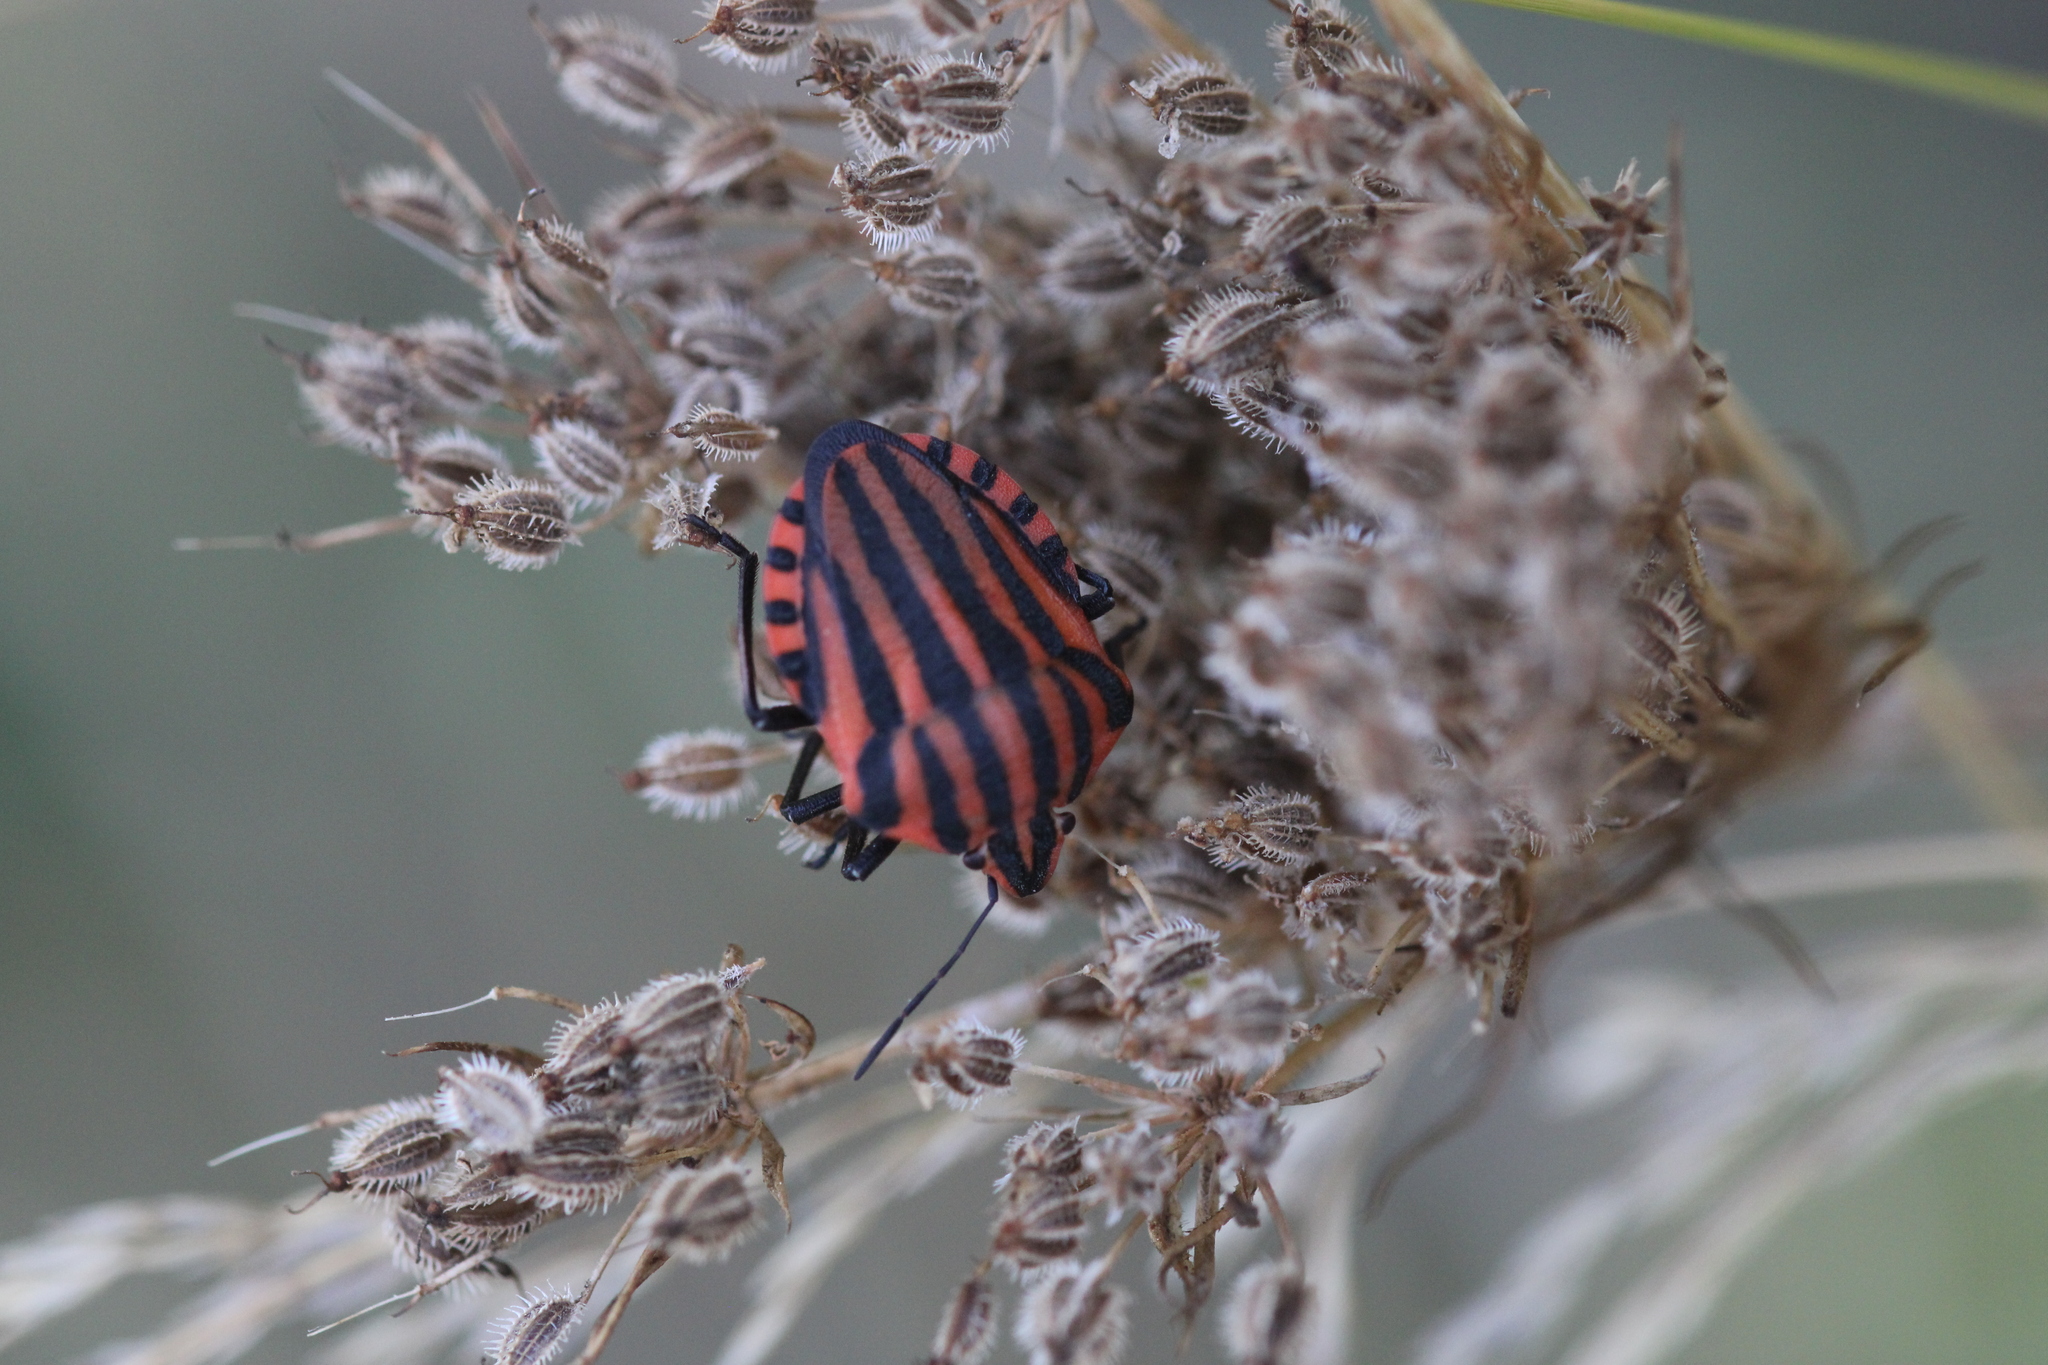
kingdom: Animalia
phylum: Arthropoda
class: Insecta
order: Hemiptera
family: Pentatomidae
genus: Graphosoma
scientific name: Graphosoma italicum
